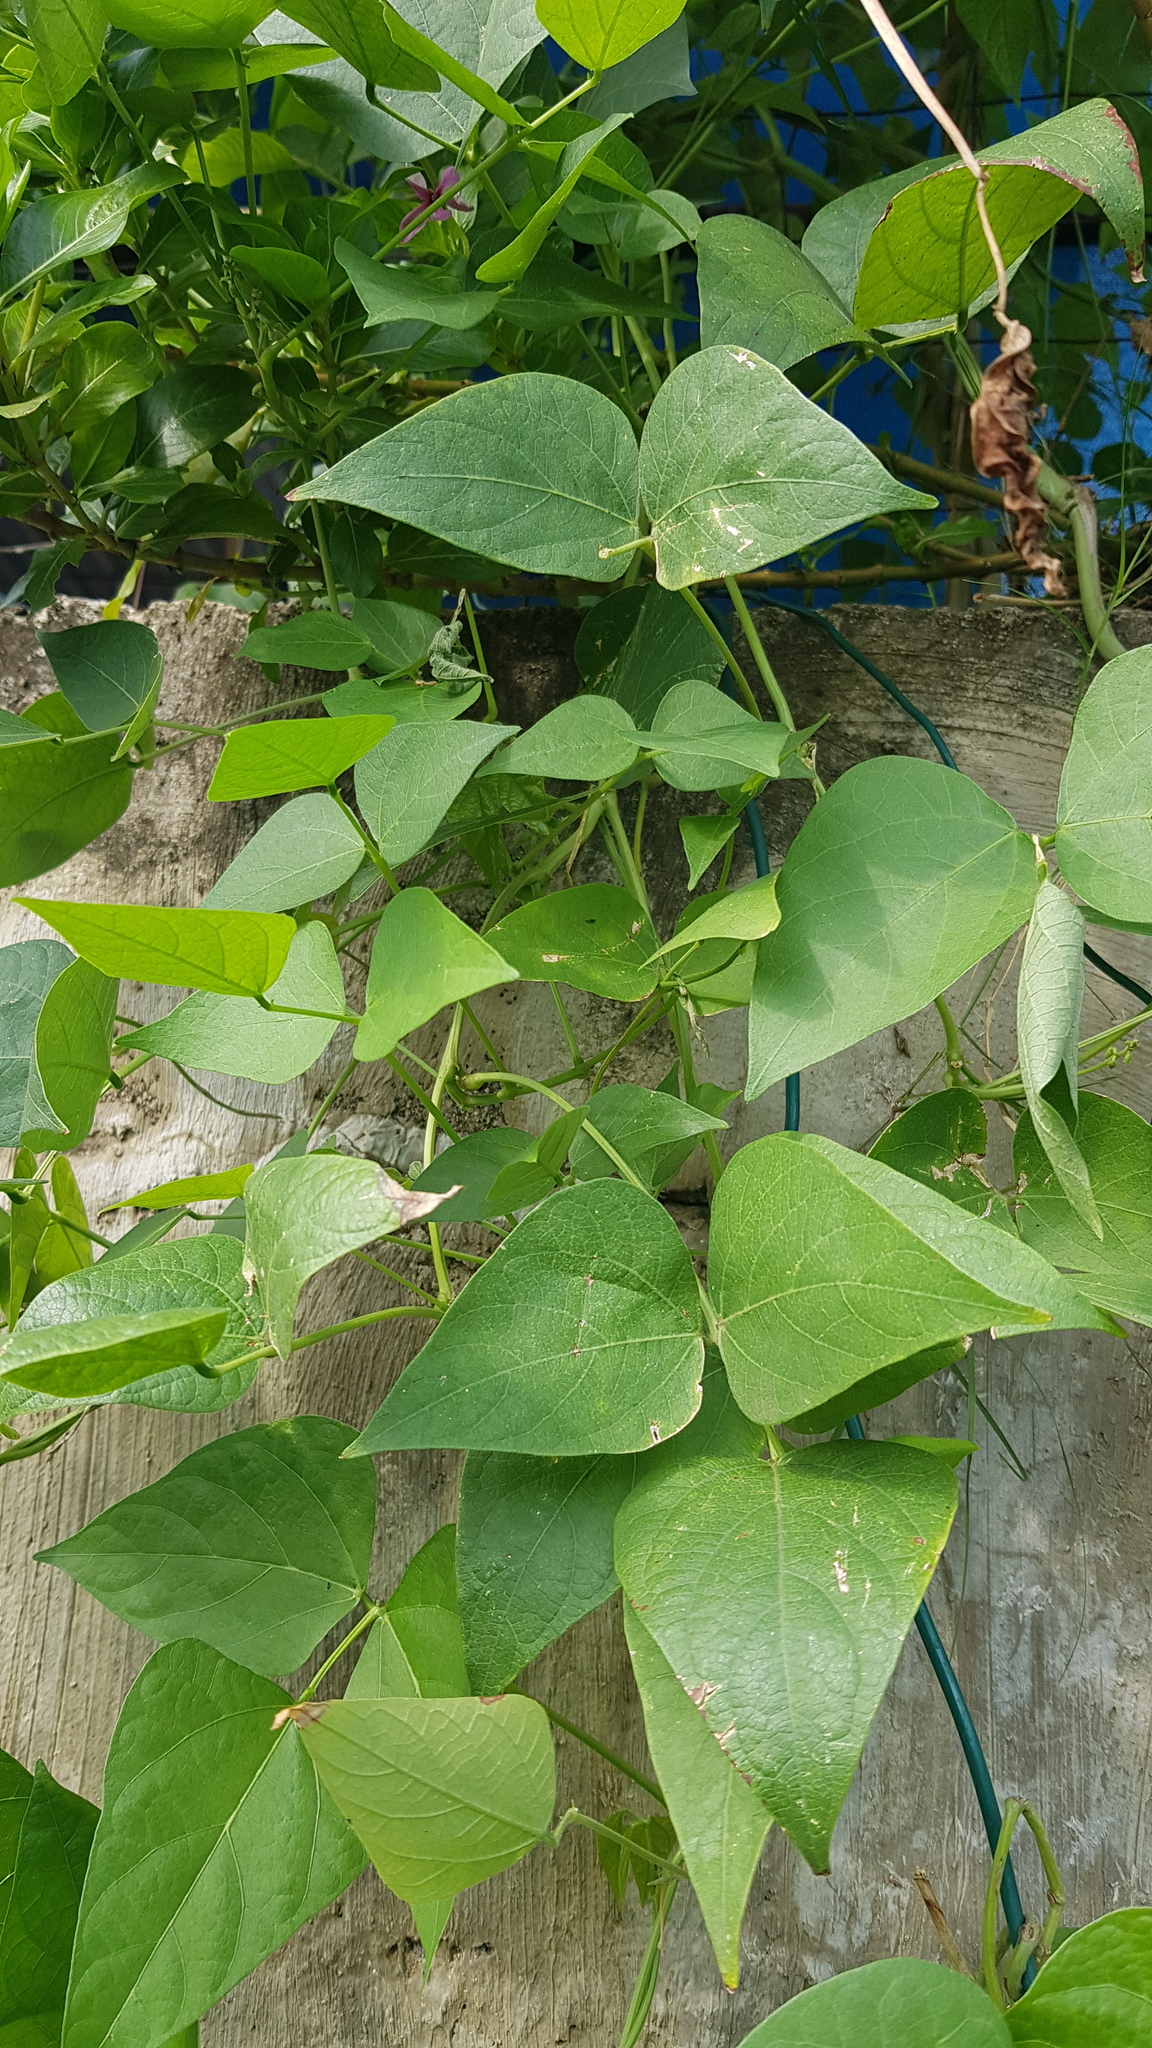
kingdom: Plantae
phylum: Tracheophyta
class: Magnoliopsida
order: Fabales
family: Fabaceae
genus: Phaseolus
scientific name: Phaseolus lunatus
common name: Sieva bean
